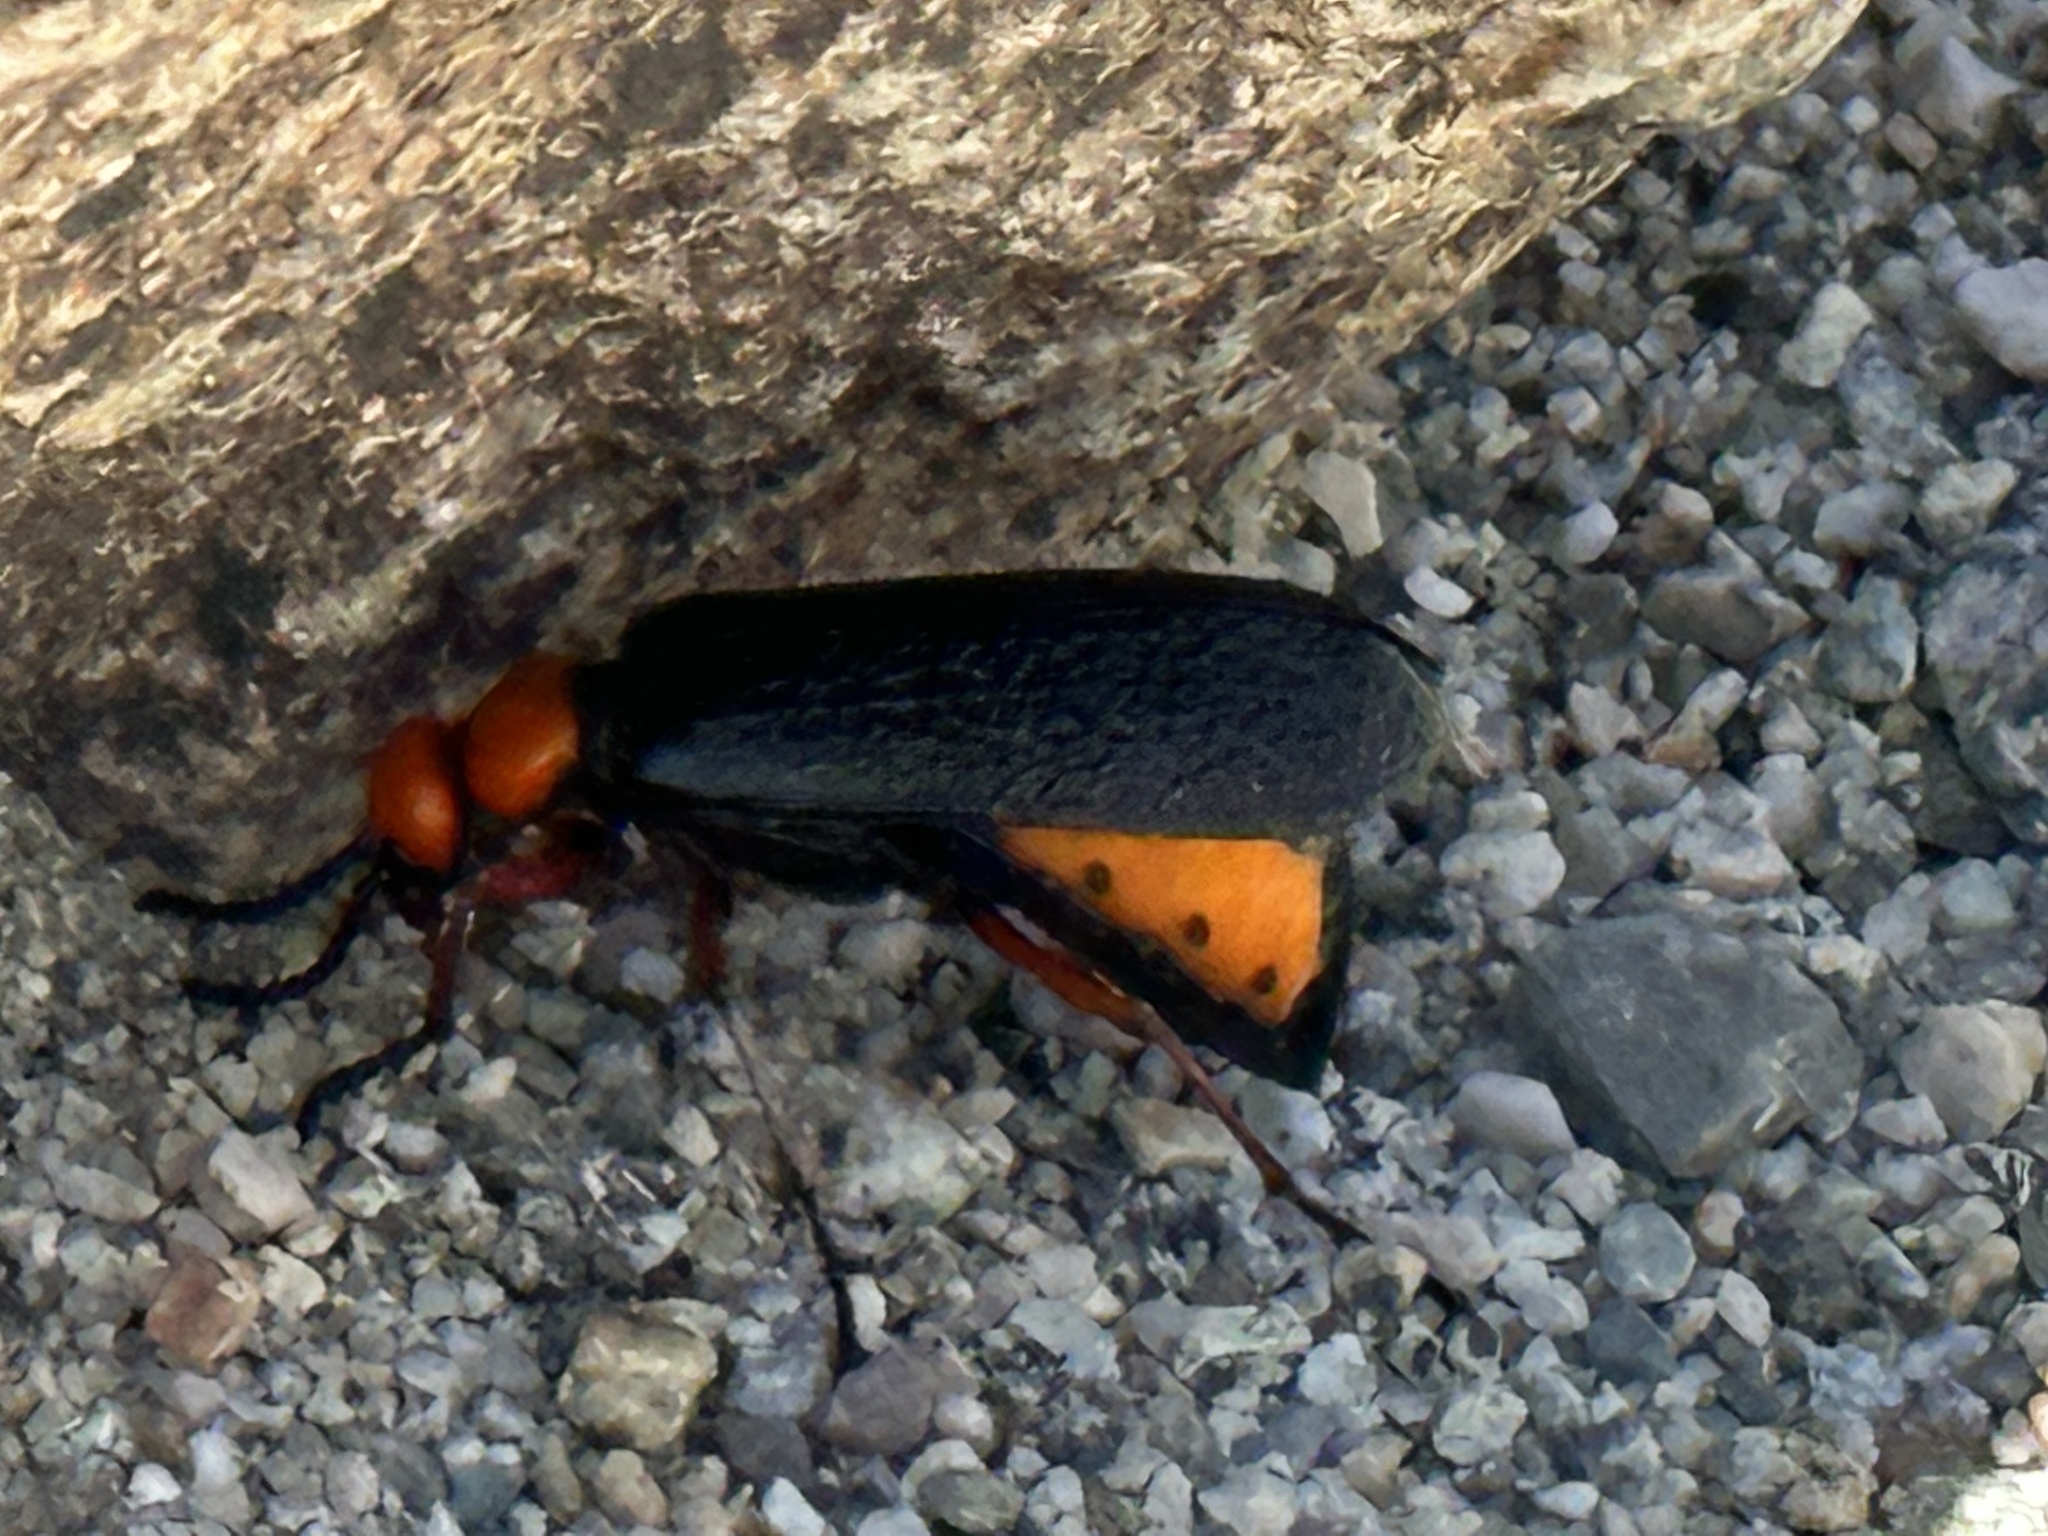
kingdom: Animalia
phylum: Arthropoda
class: Insecta
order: Coleoptera
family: Meloidae
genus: Lytta
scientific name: Lytta magister
